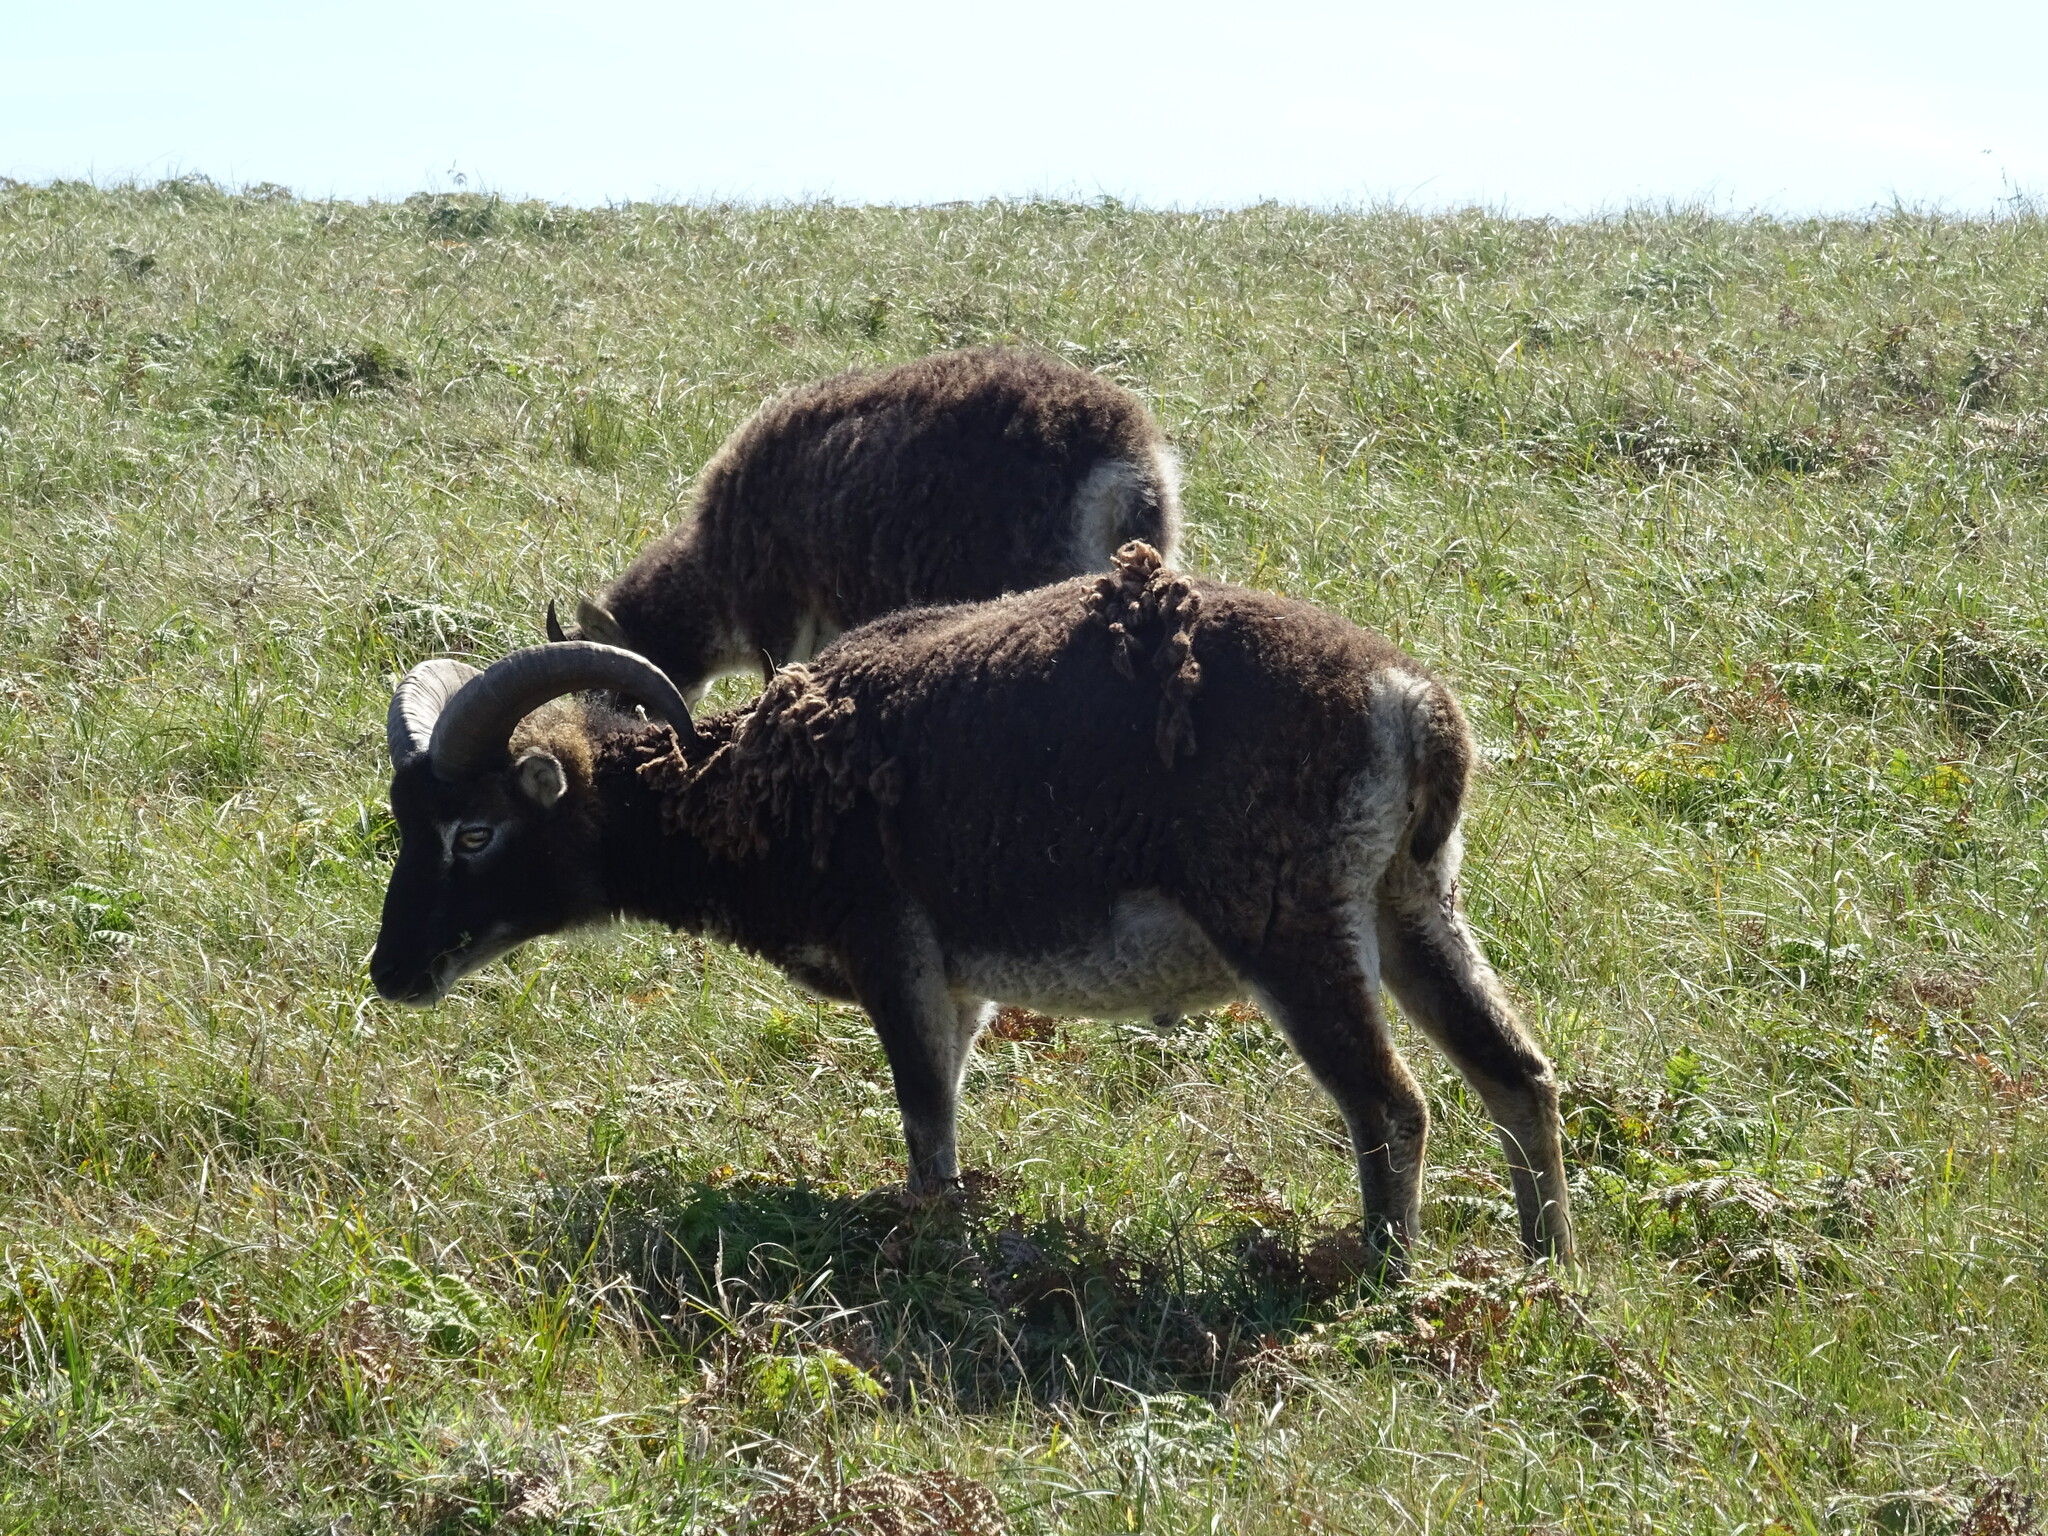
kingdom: Animalia
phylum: Chordata
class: Mammalia
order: Artiodactyla
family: Bovidae
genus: Ovis
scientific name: Ovis aries
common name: Domestic sheep
